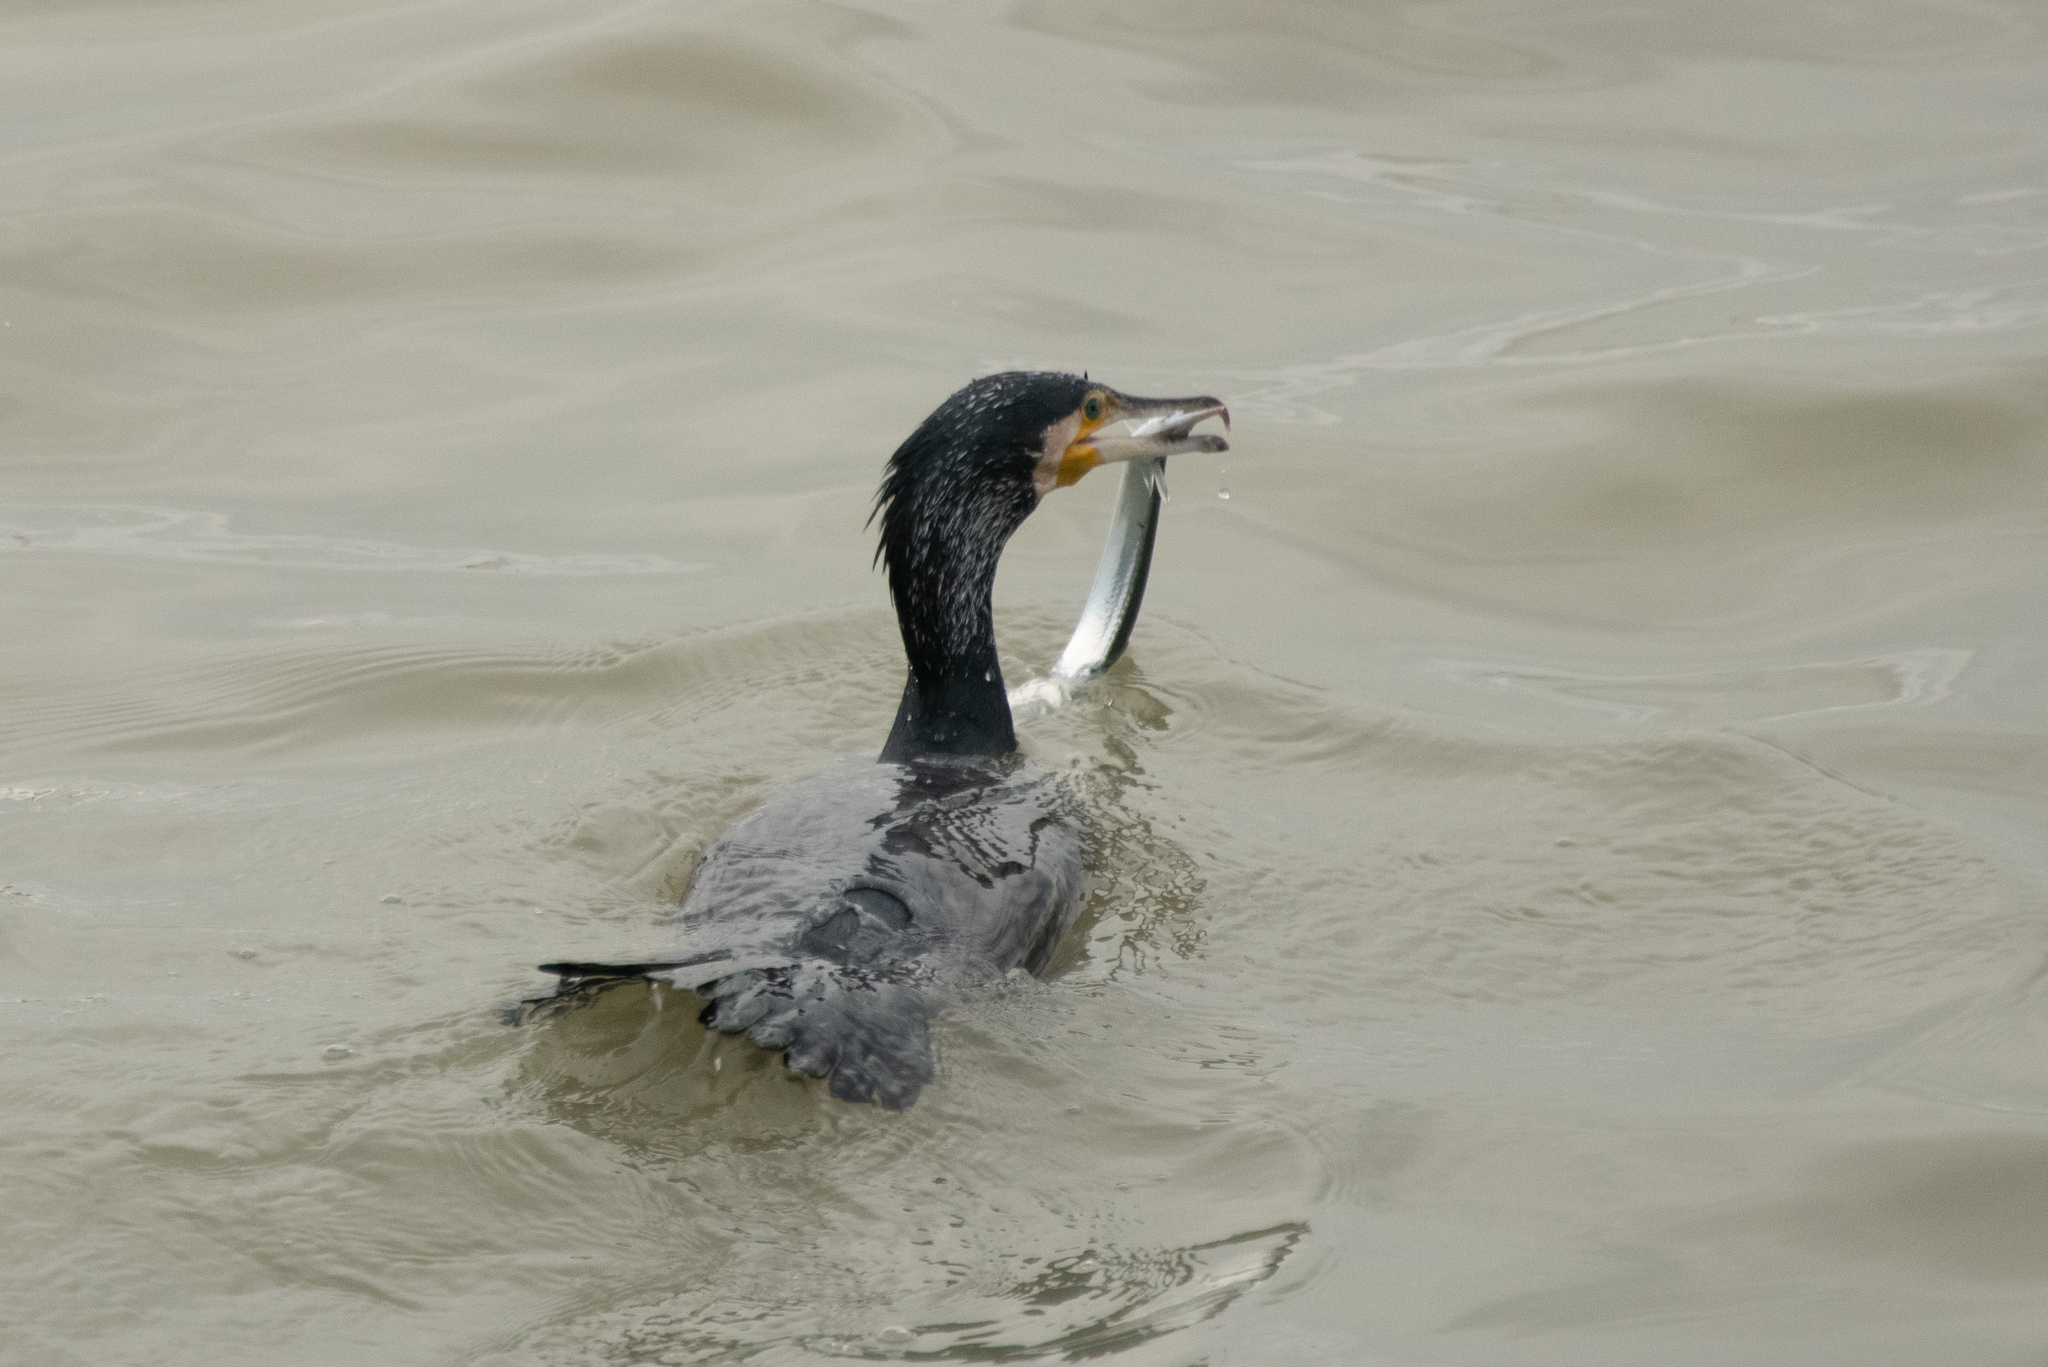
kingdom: Animalia
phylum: Chordata
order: Beloniformes
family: Belonidae
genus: Belone
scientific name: Belone belone
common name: Garfish
